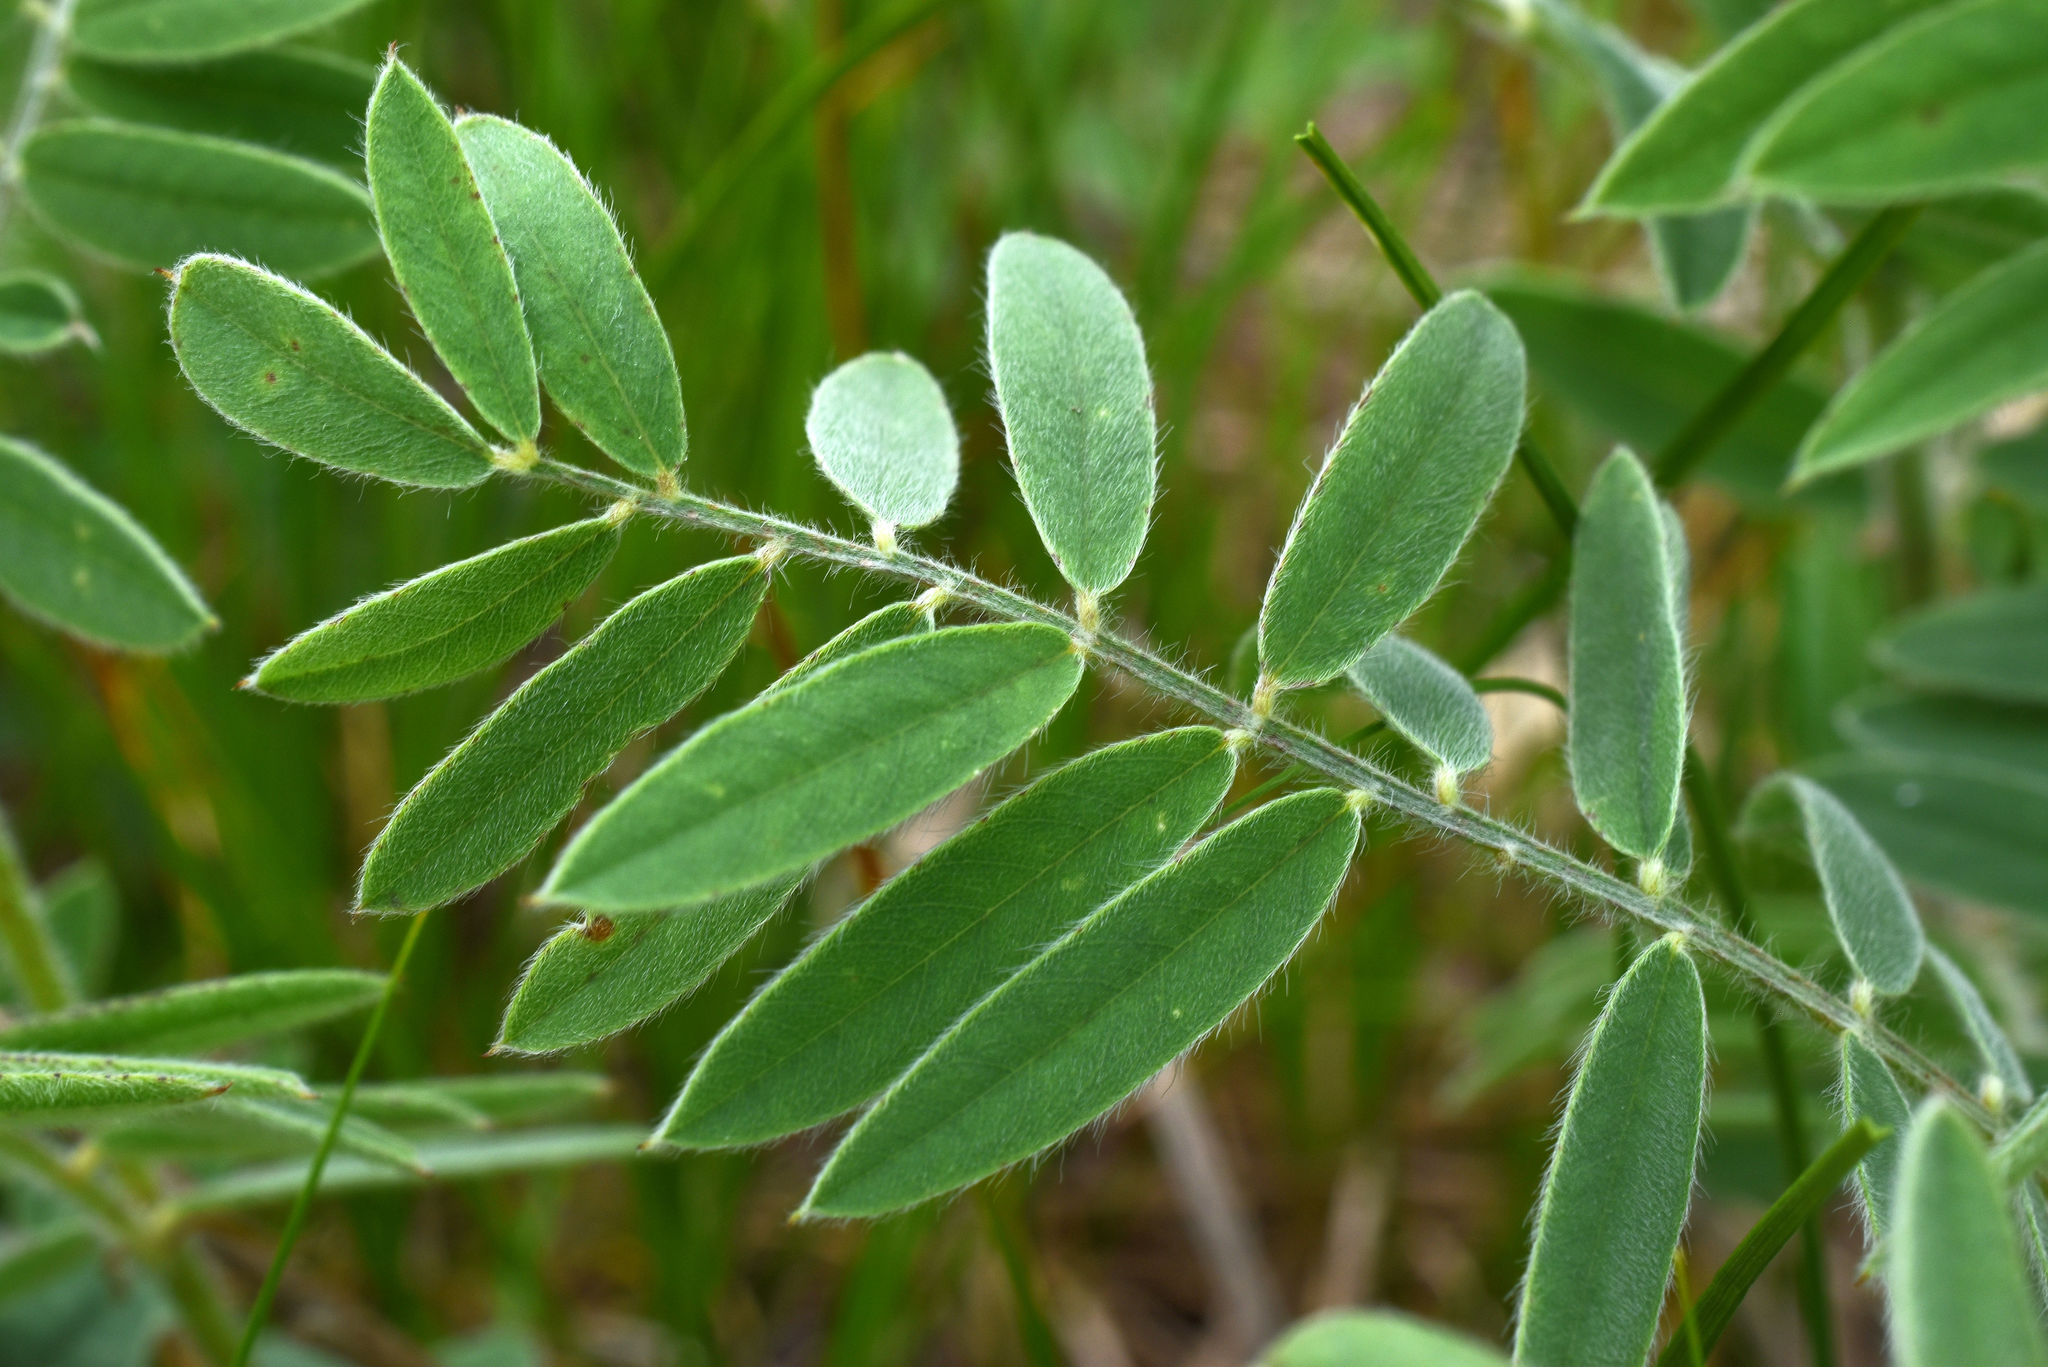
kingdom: Plantae
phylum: Tracheophyta
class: Magnoliopsida
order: Fabales
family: Fabaceae
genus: Tephrosia
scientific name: Tephrosia virginiana
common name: Rabbit-pea
